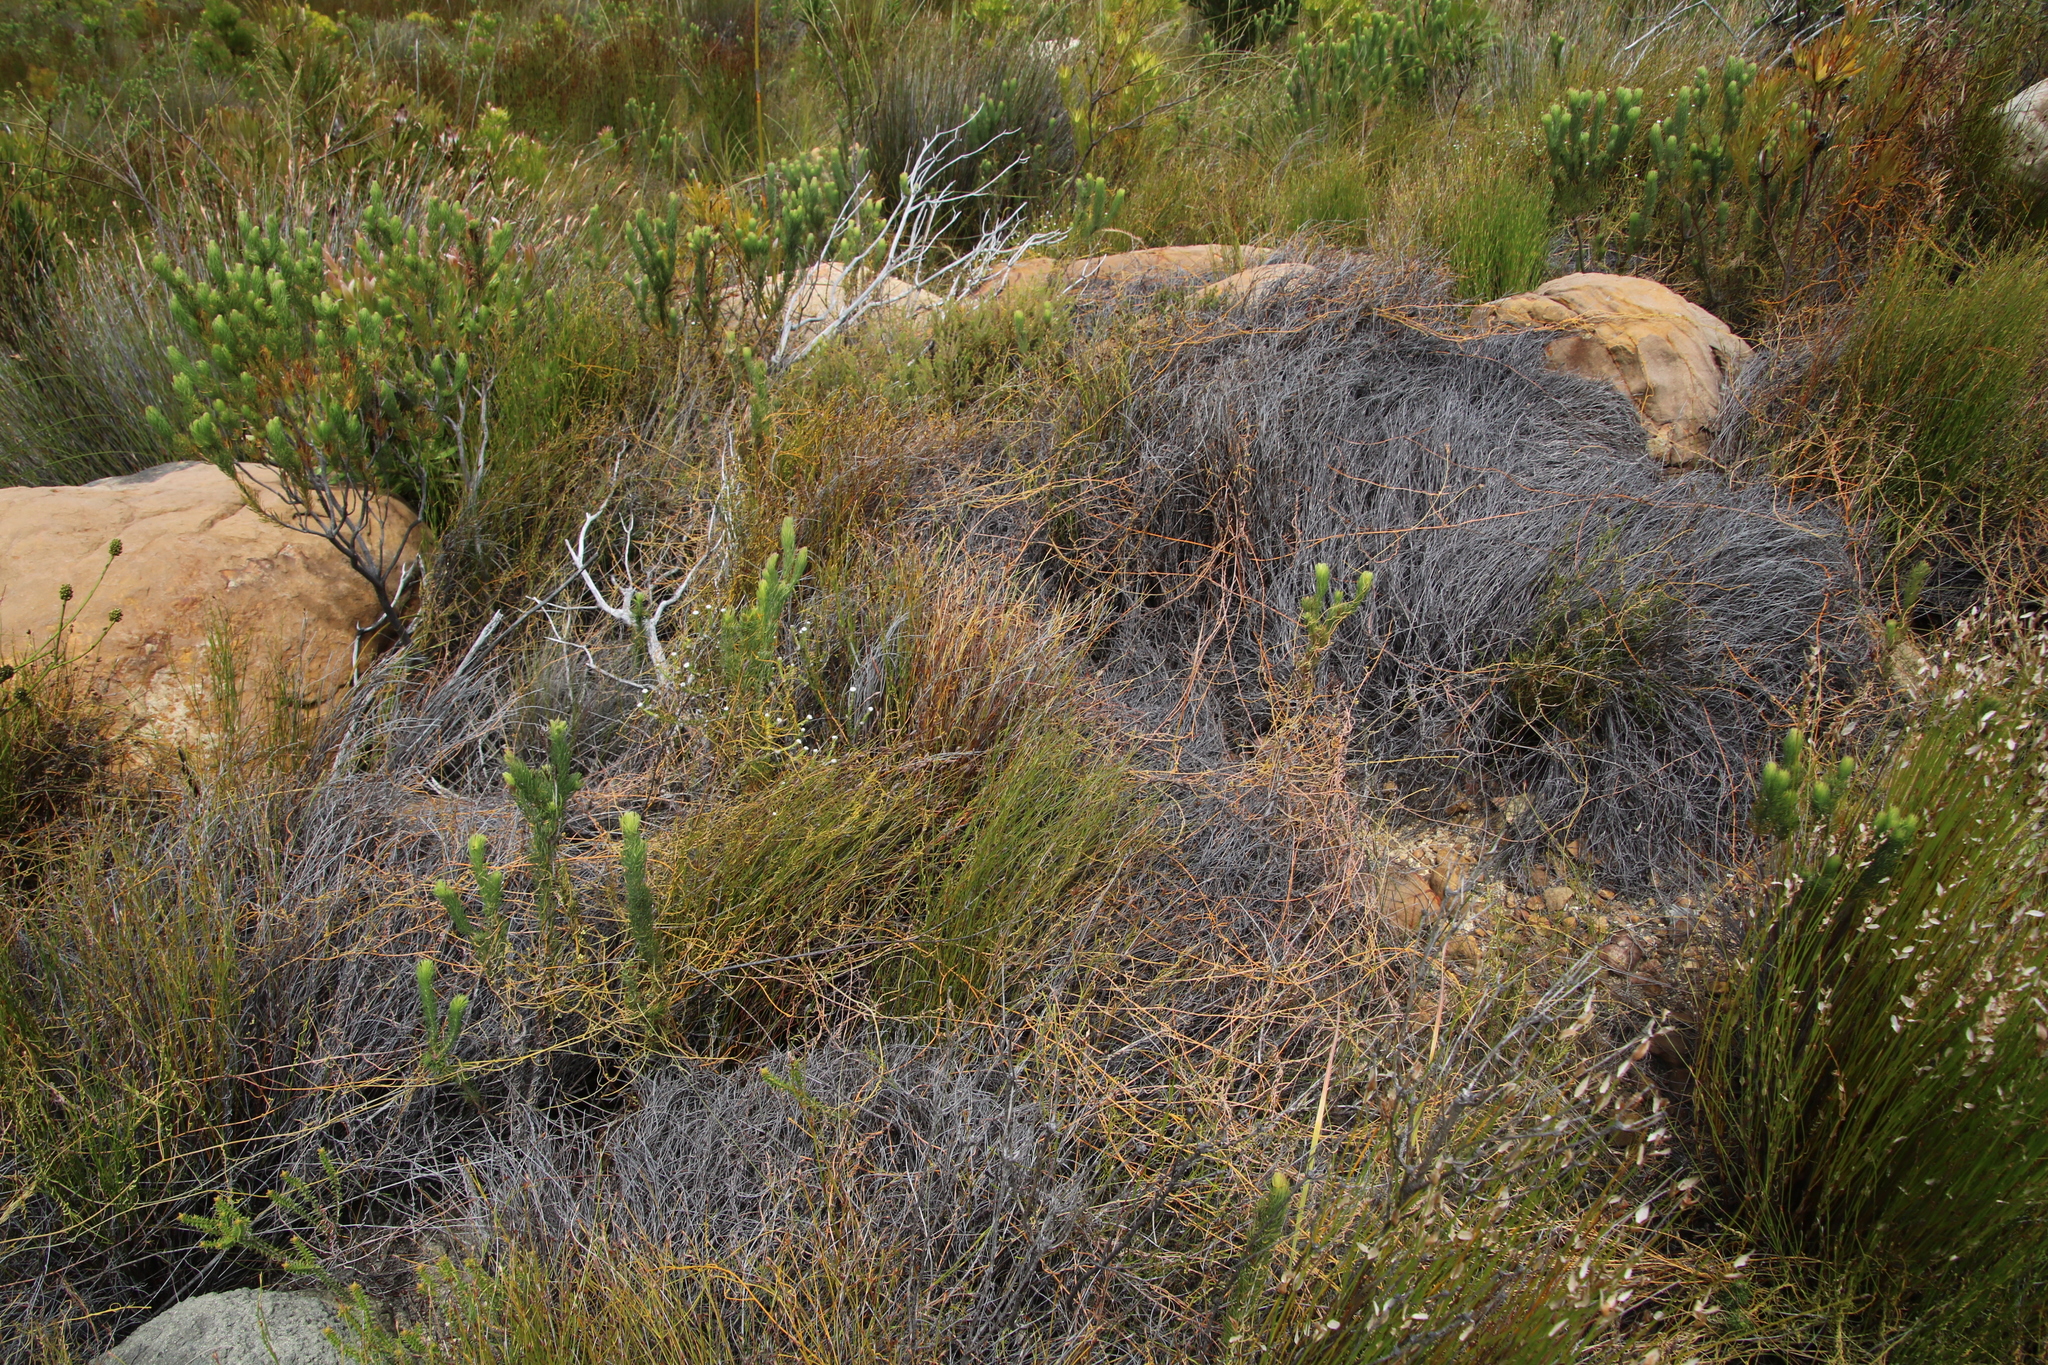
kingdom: Plantae
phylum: Tracheophyta
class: Magnoliopsida
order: Laurales
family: Lauraceae
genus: Cassytha
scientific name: Cassytha ciliolata
